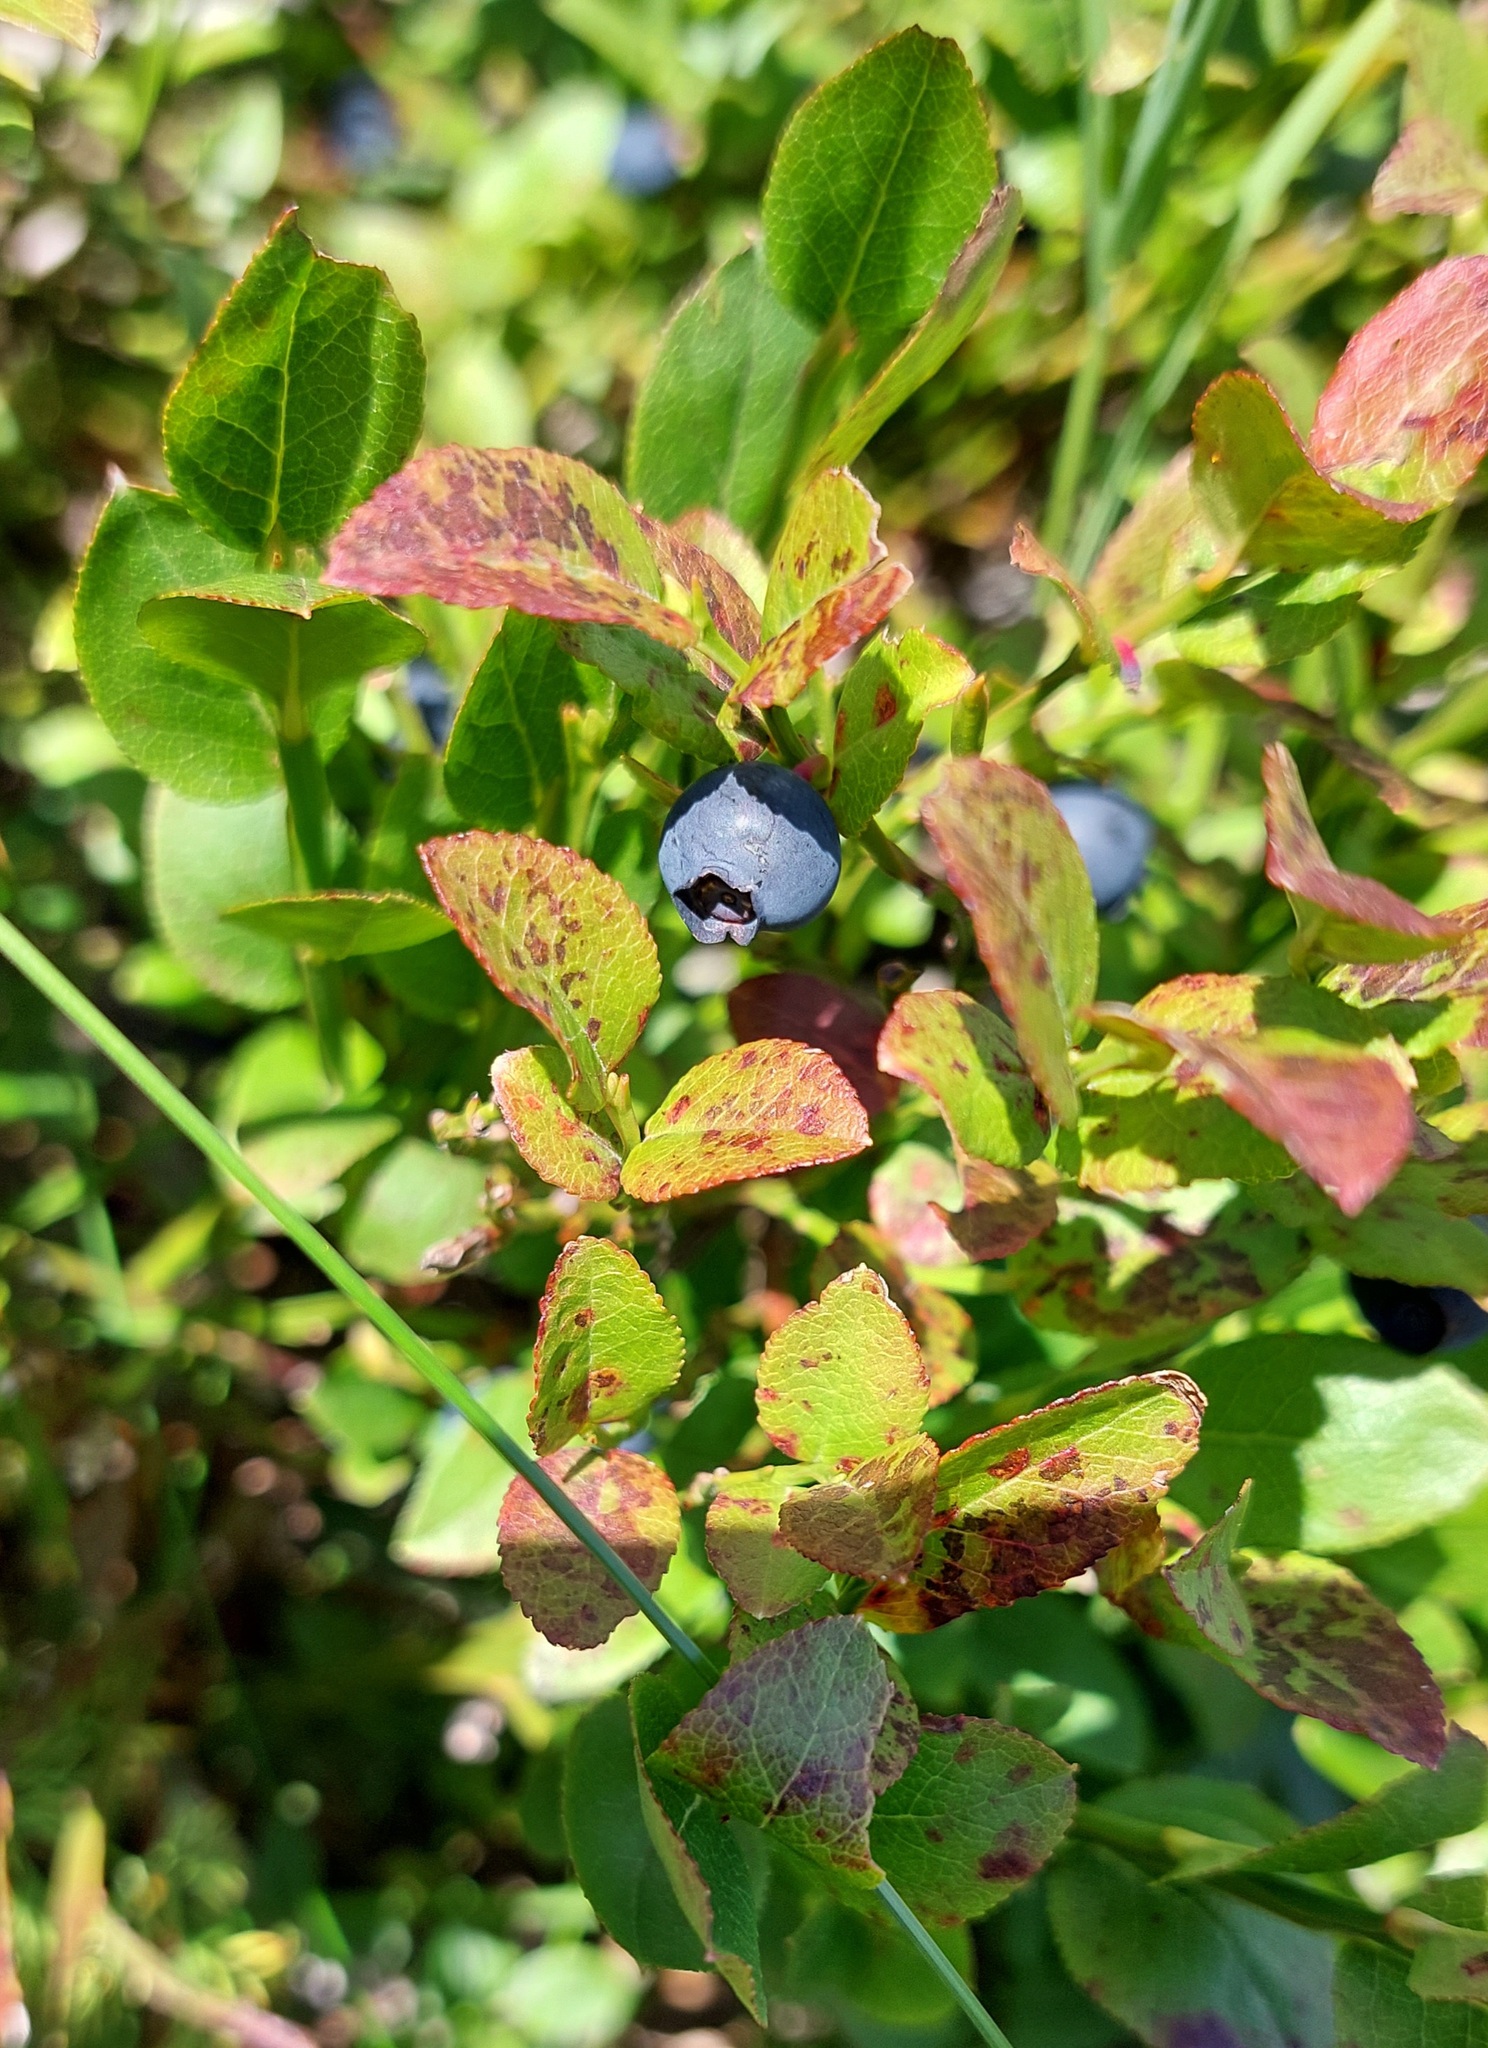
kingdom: Plantae
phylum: Tracheophyta
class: Magnoliopsida
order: Ericales
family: Ericaceae
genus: Vaccinium
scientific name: Vaccinium myrtillus
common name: Bilberry
